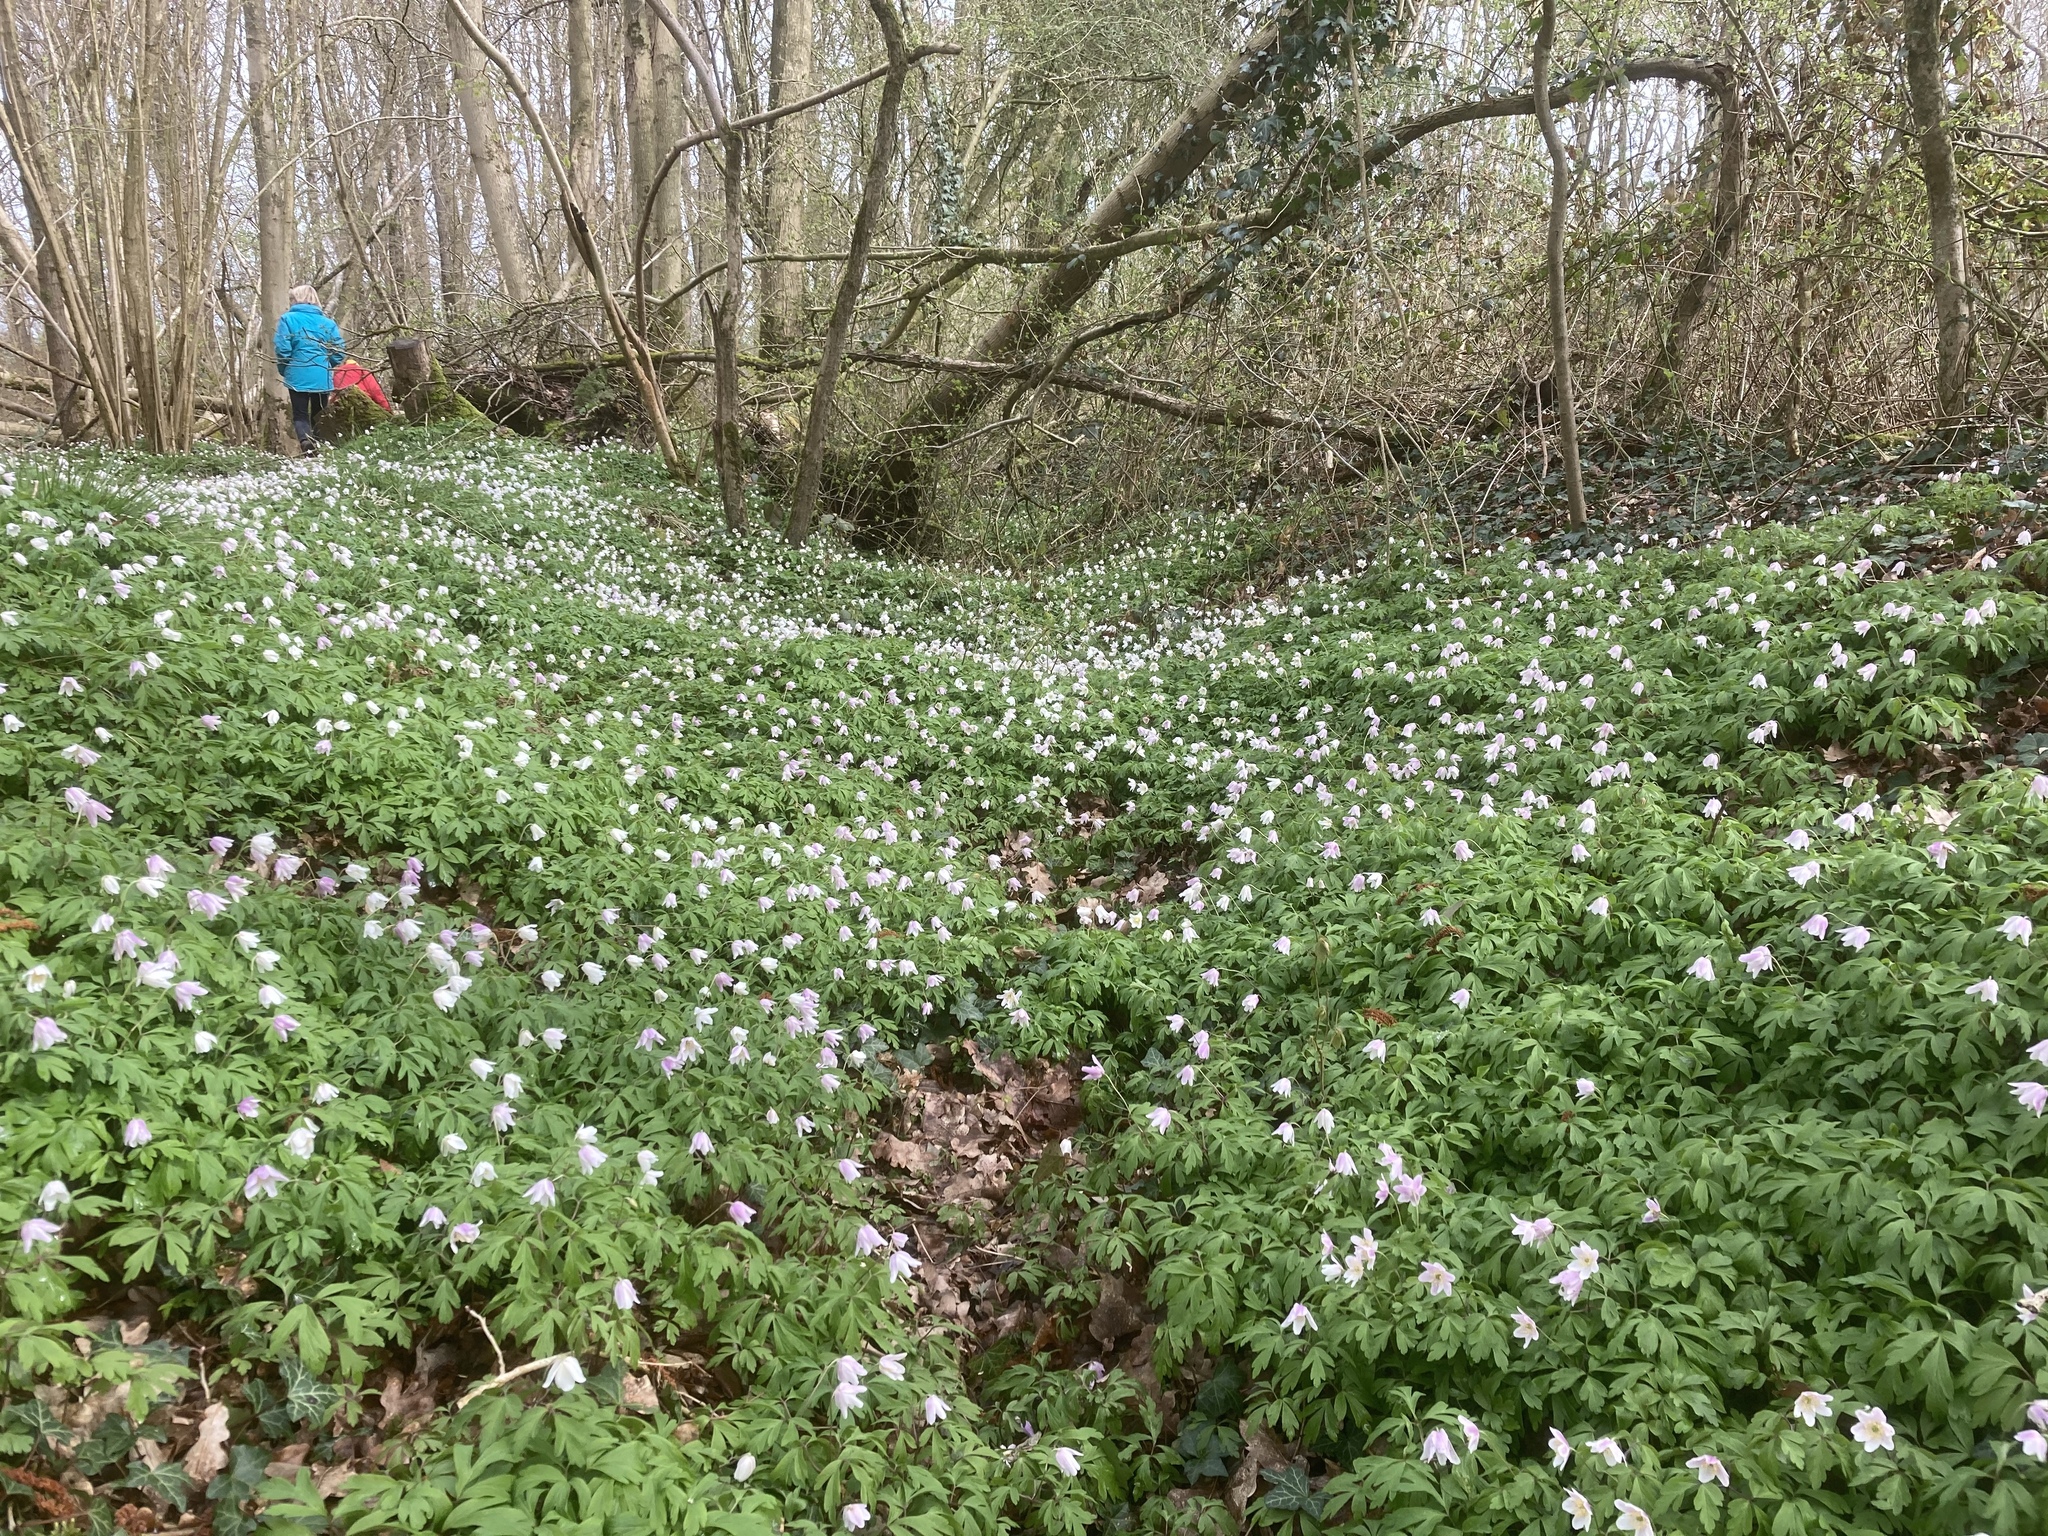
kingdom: Plantae
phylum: Tracheophyta
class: Magnoliopsida
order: Ranunculales
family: Ranunculaceae
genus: Anemone
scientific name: Anemone nemorosa
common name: Wood anemone
